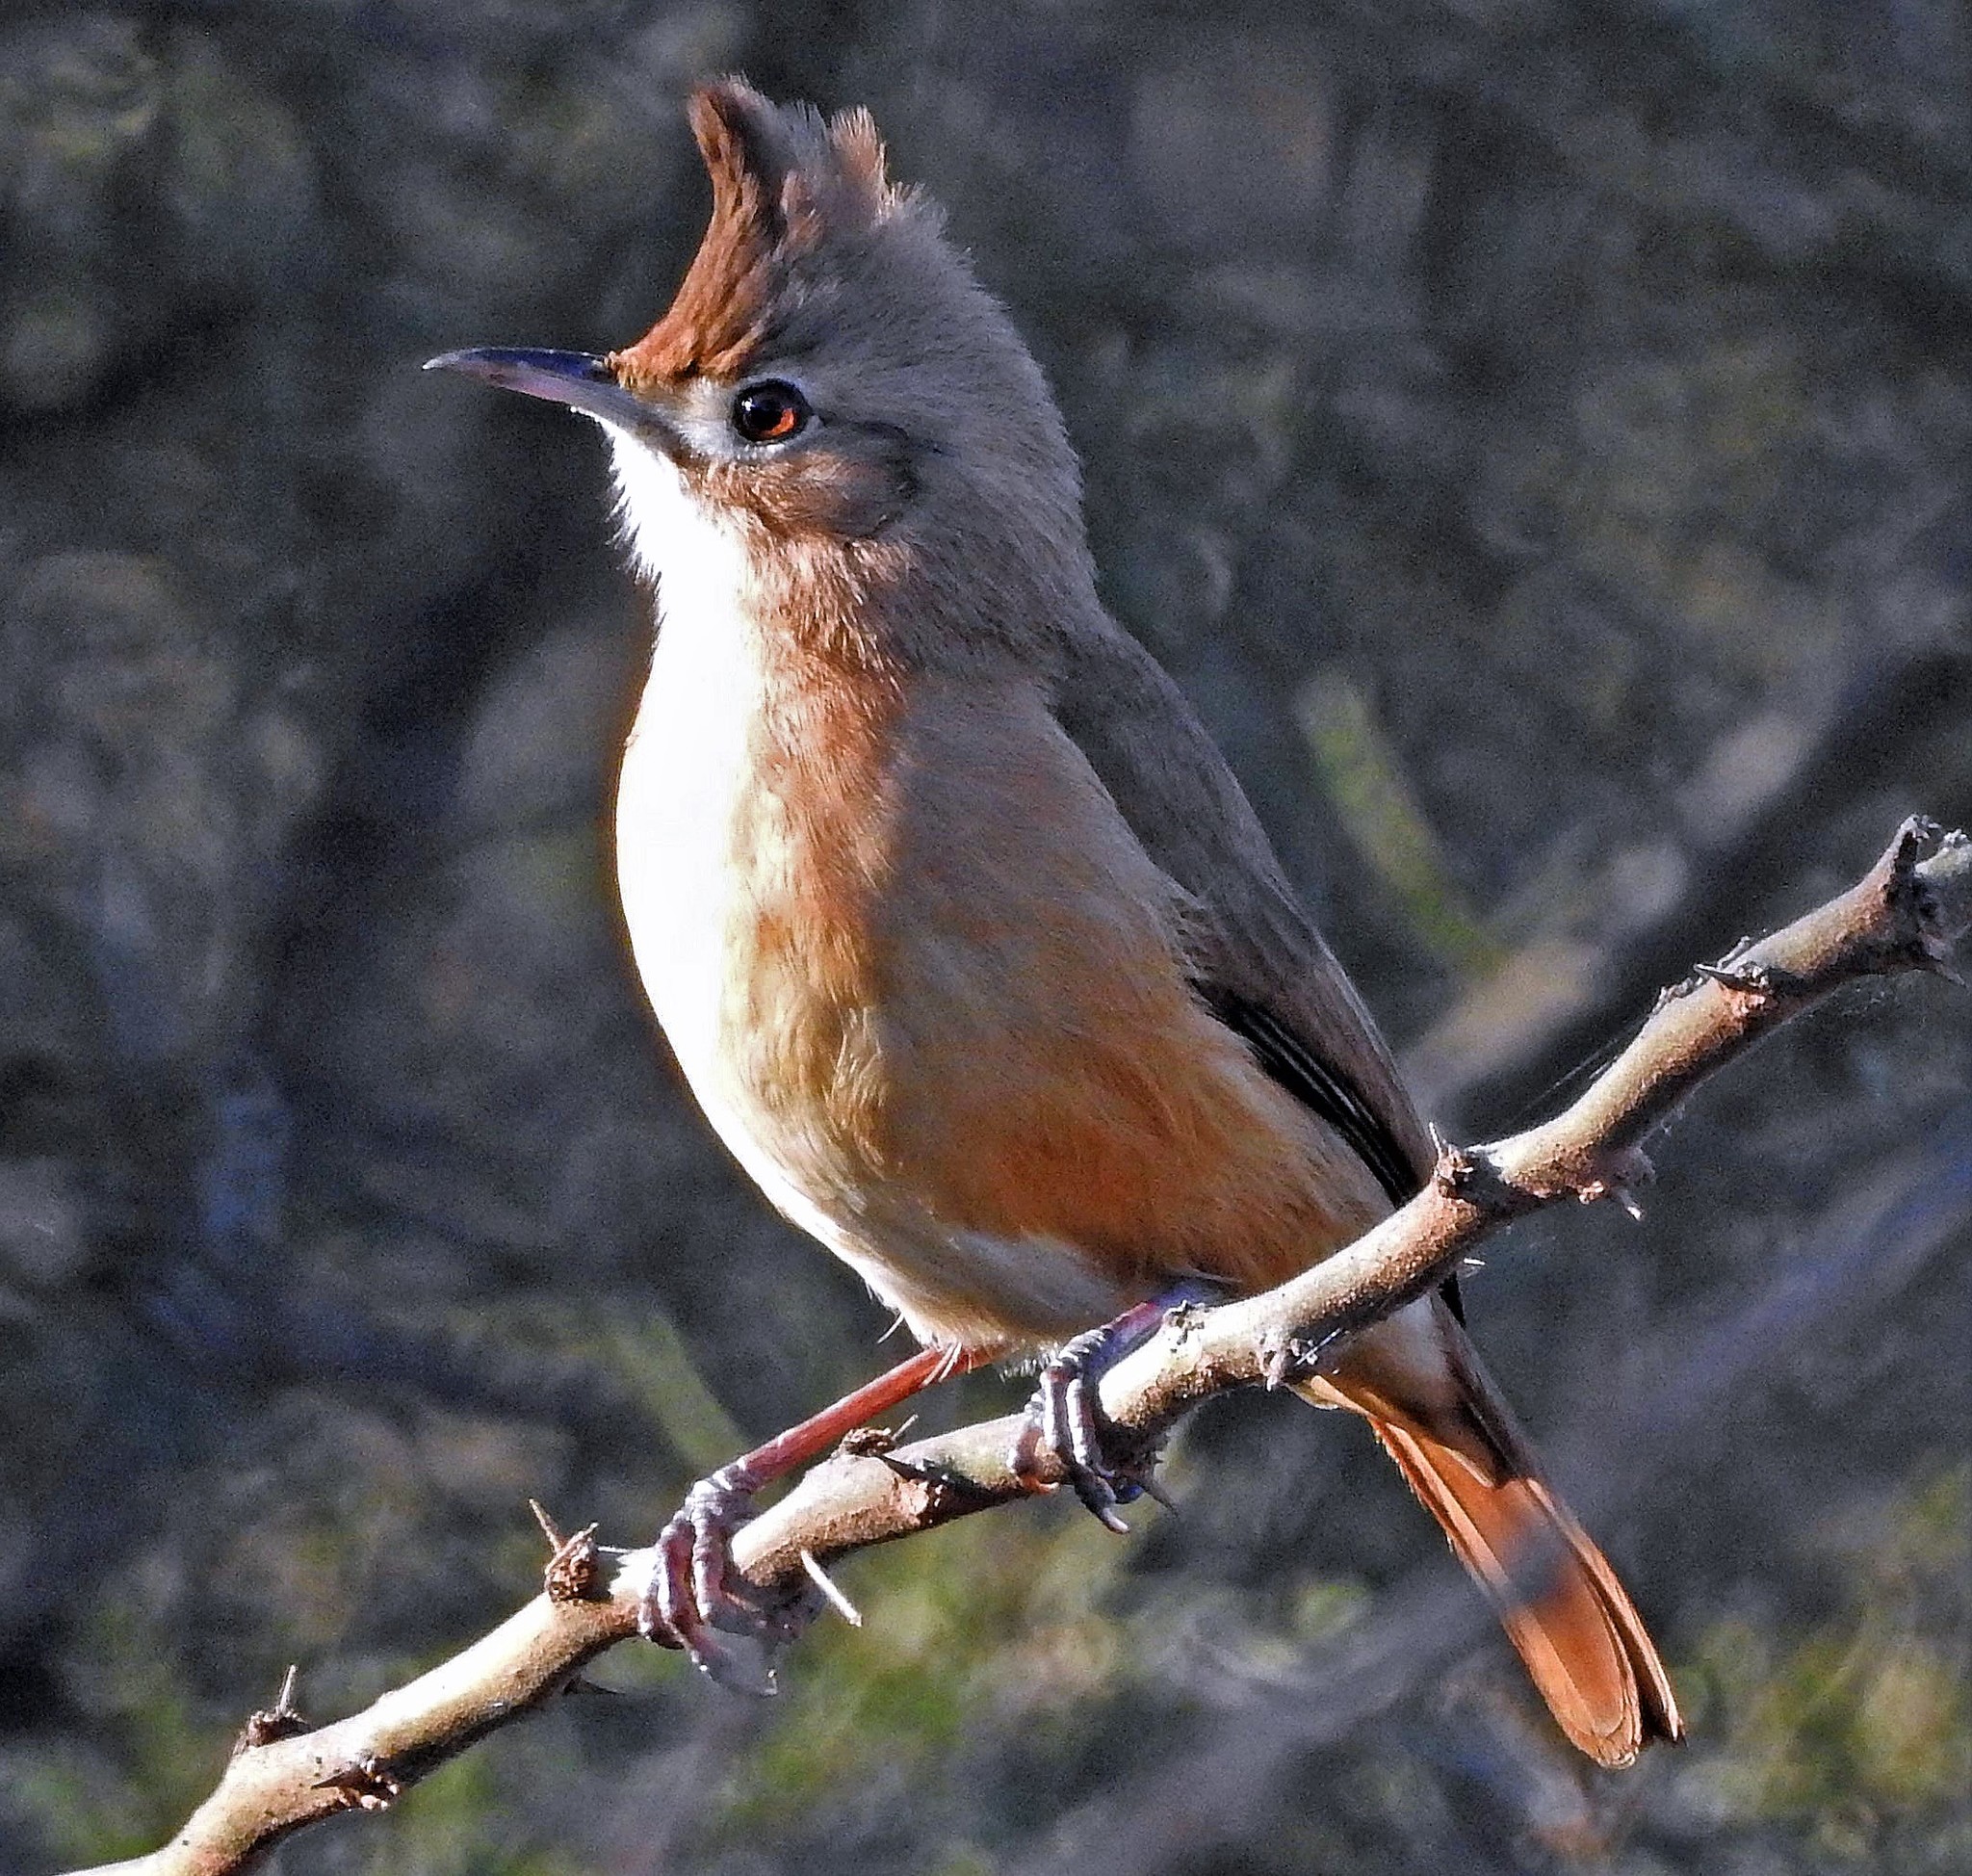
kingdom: Animalia
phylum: Chordata
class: Aves
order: Passeriformes
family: Furnariidae
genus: Furnarius
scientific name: Furnarius cristatus
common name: Crested hornero
